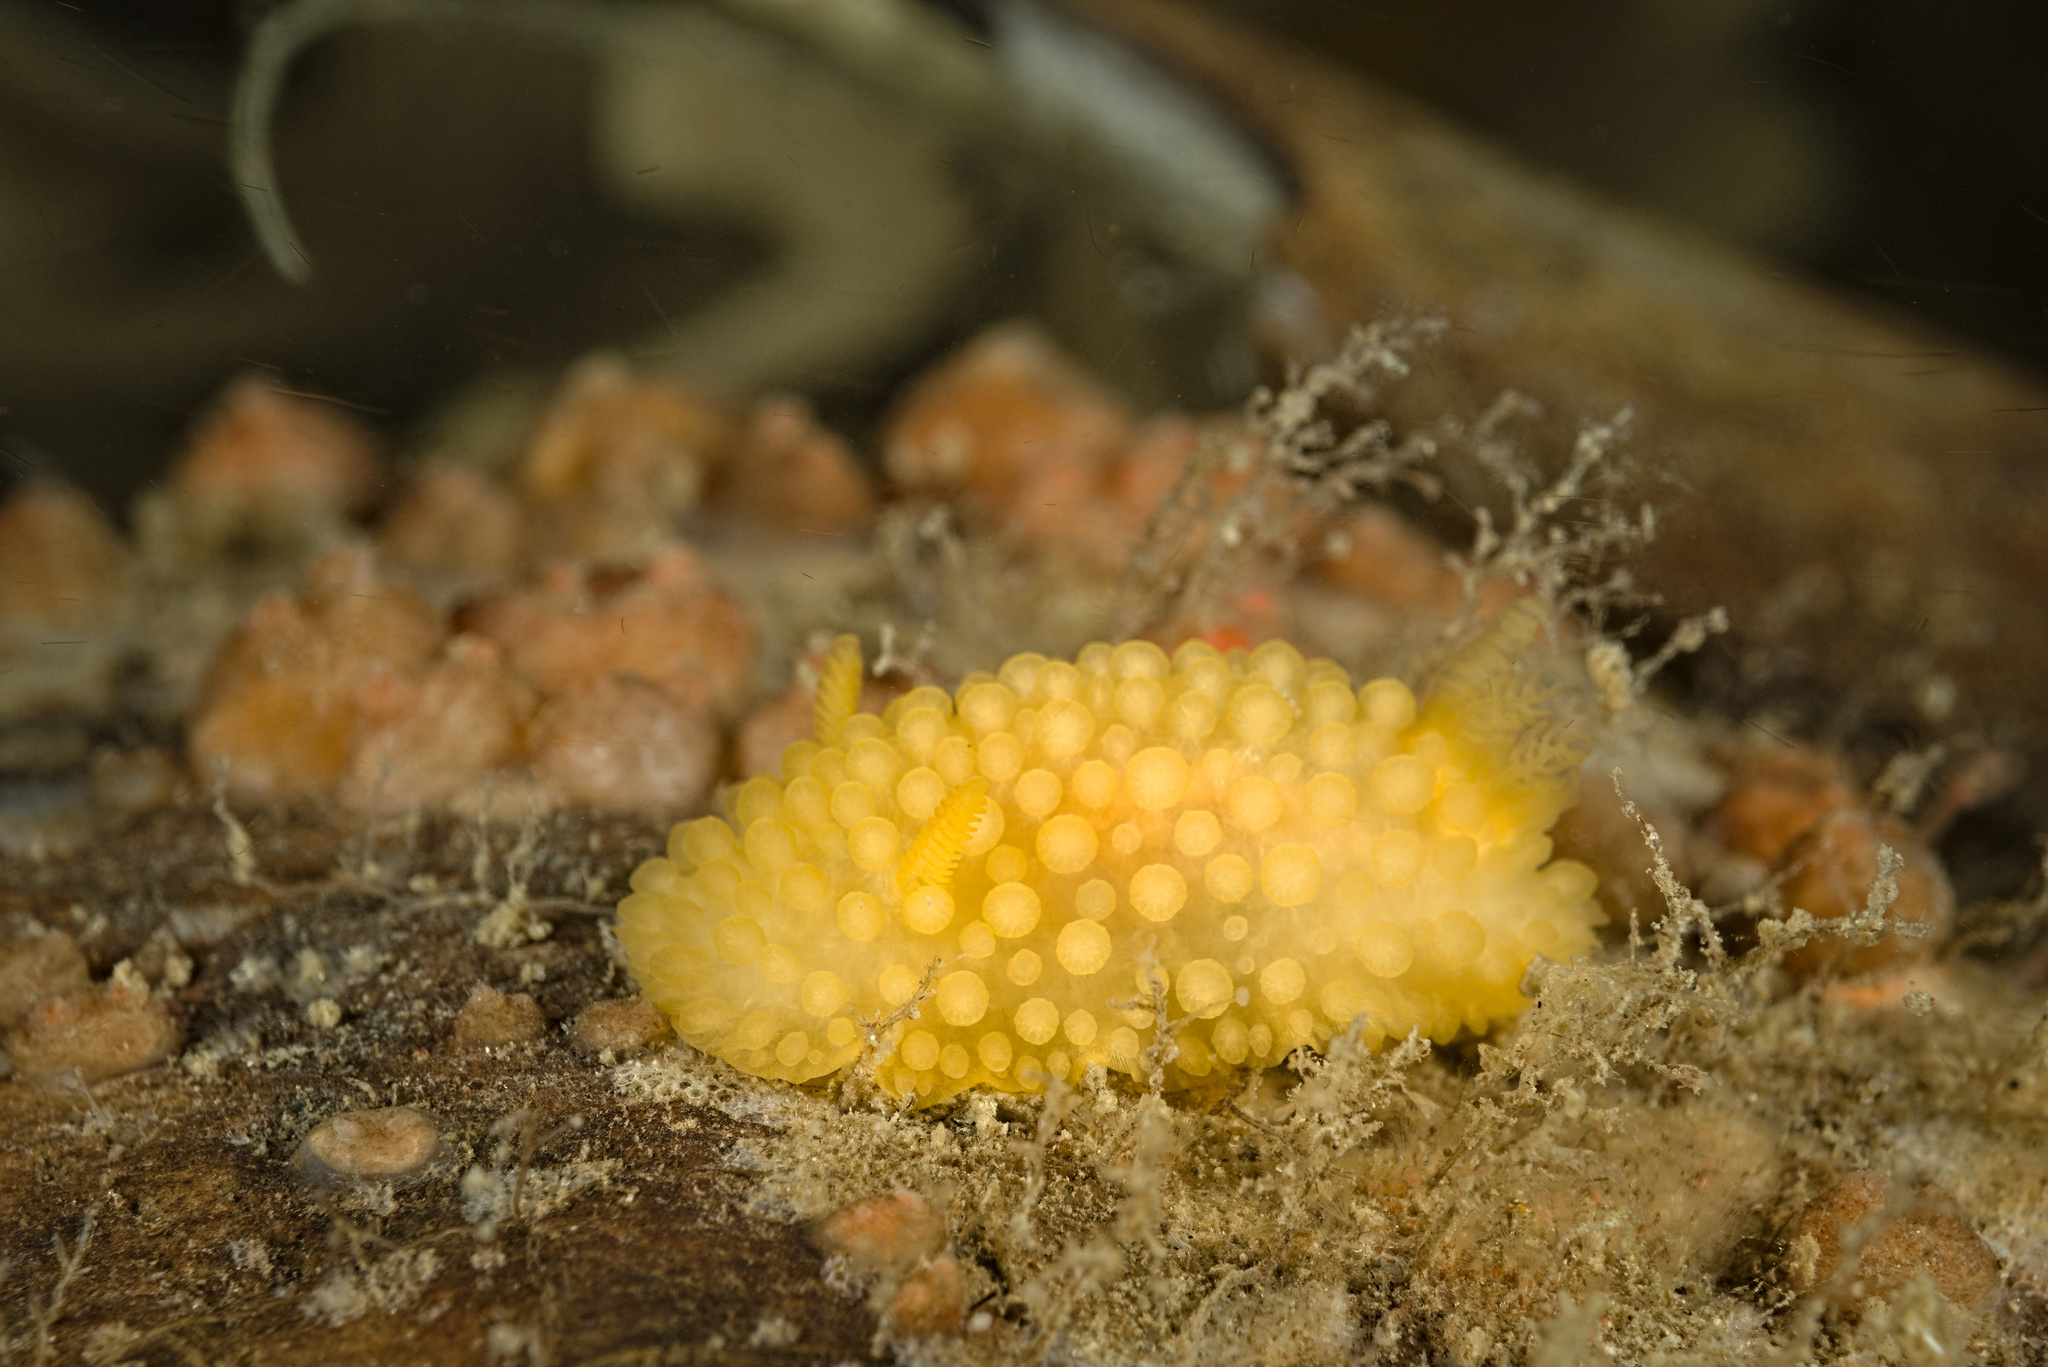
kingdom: Animalia
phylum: Mollusca
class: Gastropoda
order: Nudibranchia
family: Onchidorididae
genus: Adalaria
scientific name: Adalaria loveni
